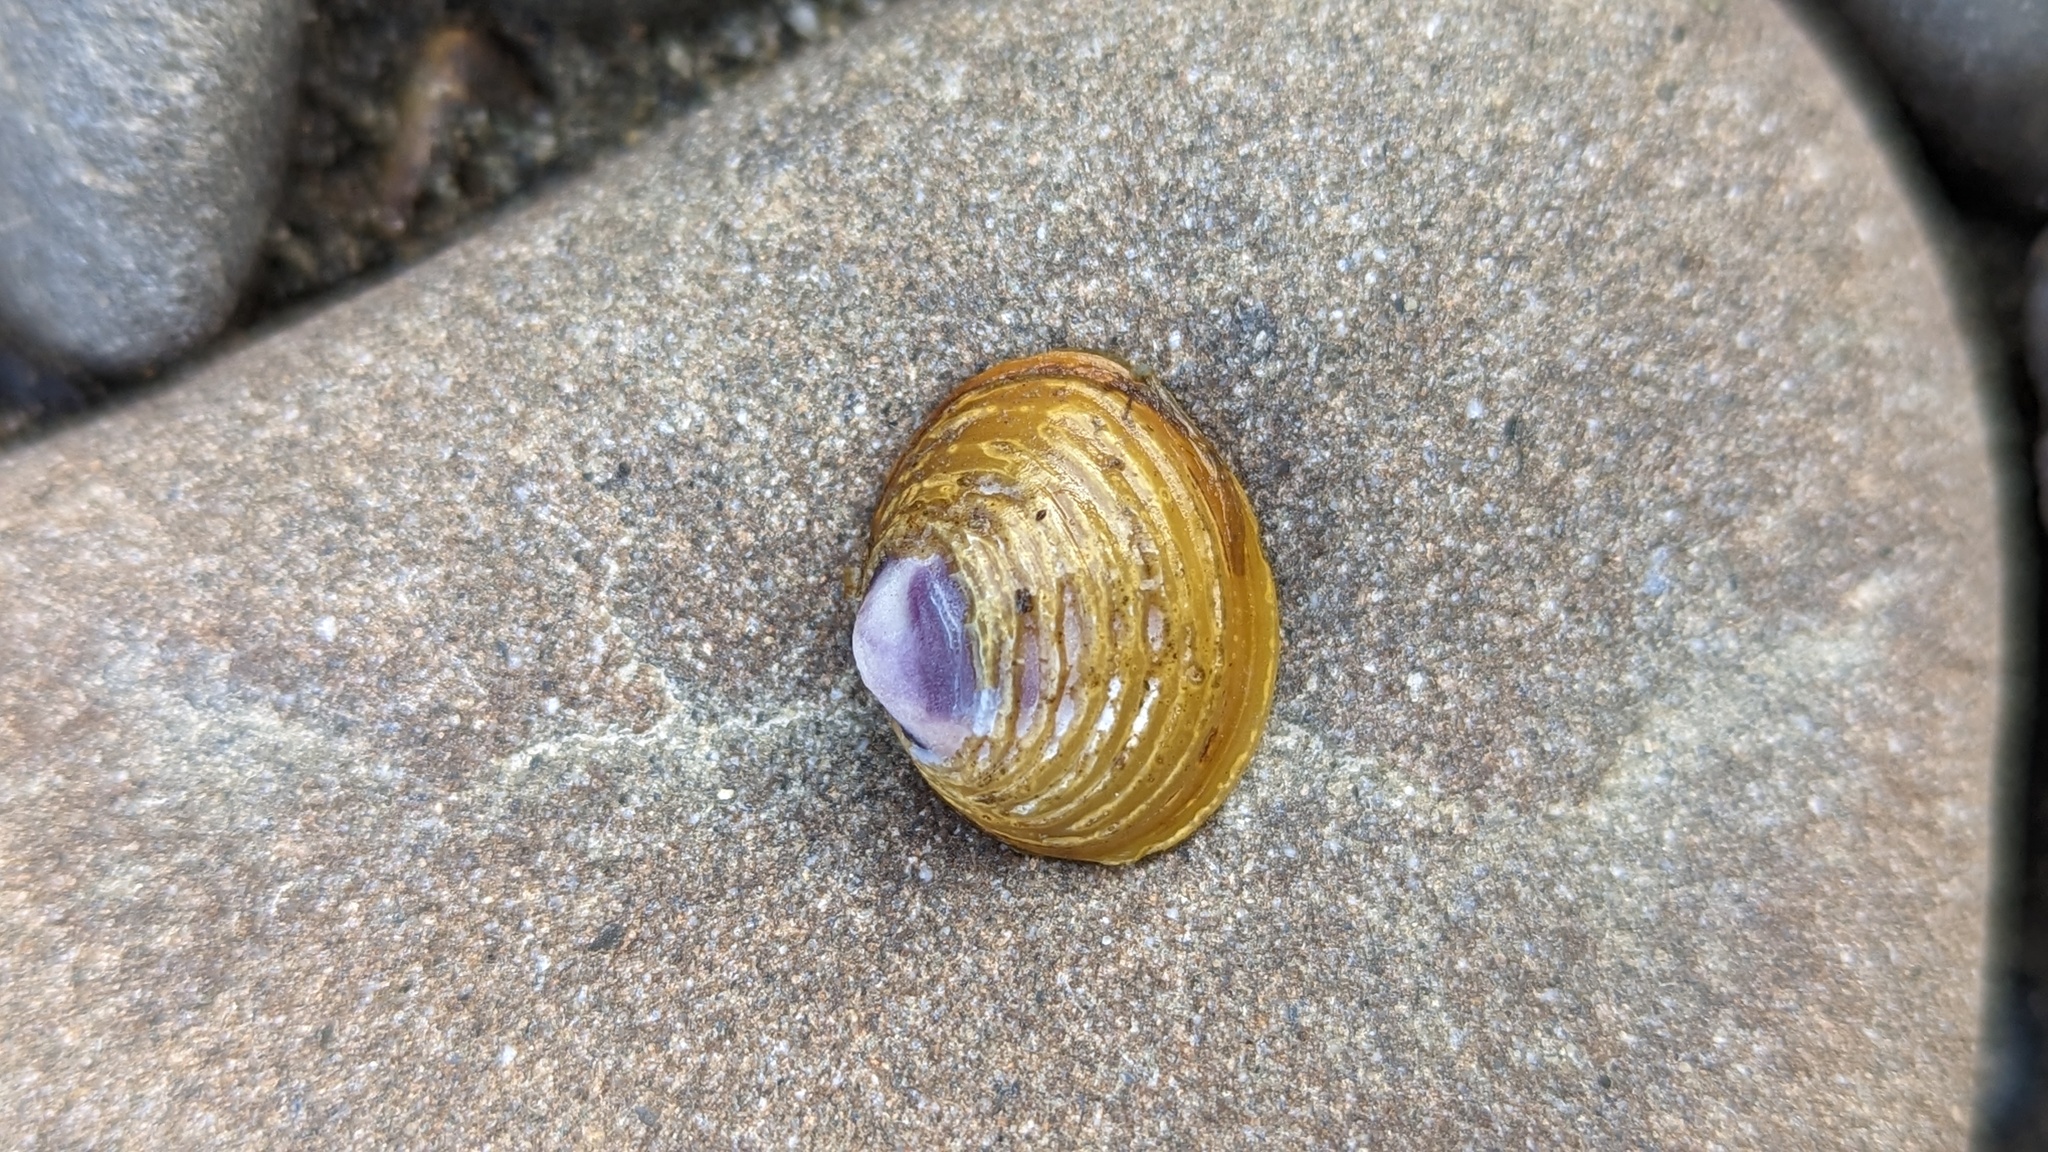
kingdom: Animalia
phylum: Mollusca
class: Bivalvia
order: Venerida
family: Cyrenidae
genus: Corbicula
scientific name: Corbicula fluminea
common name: Asian clam
